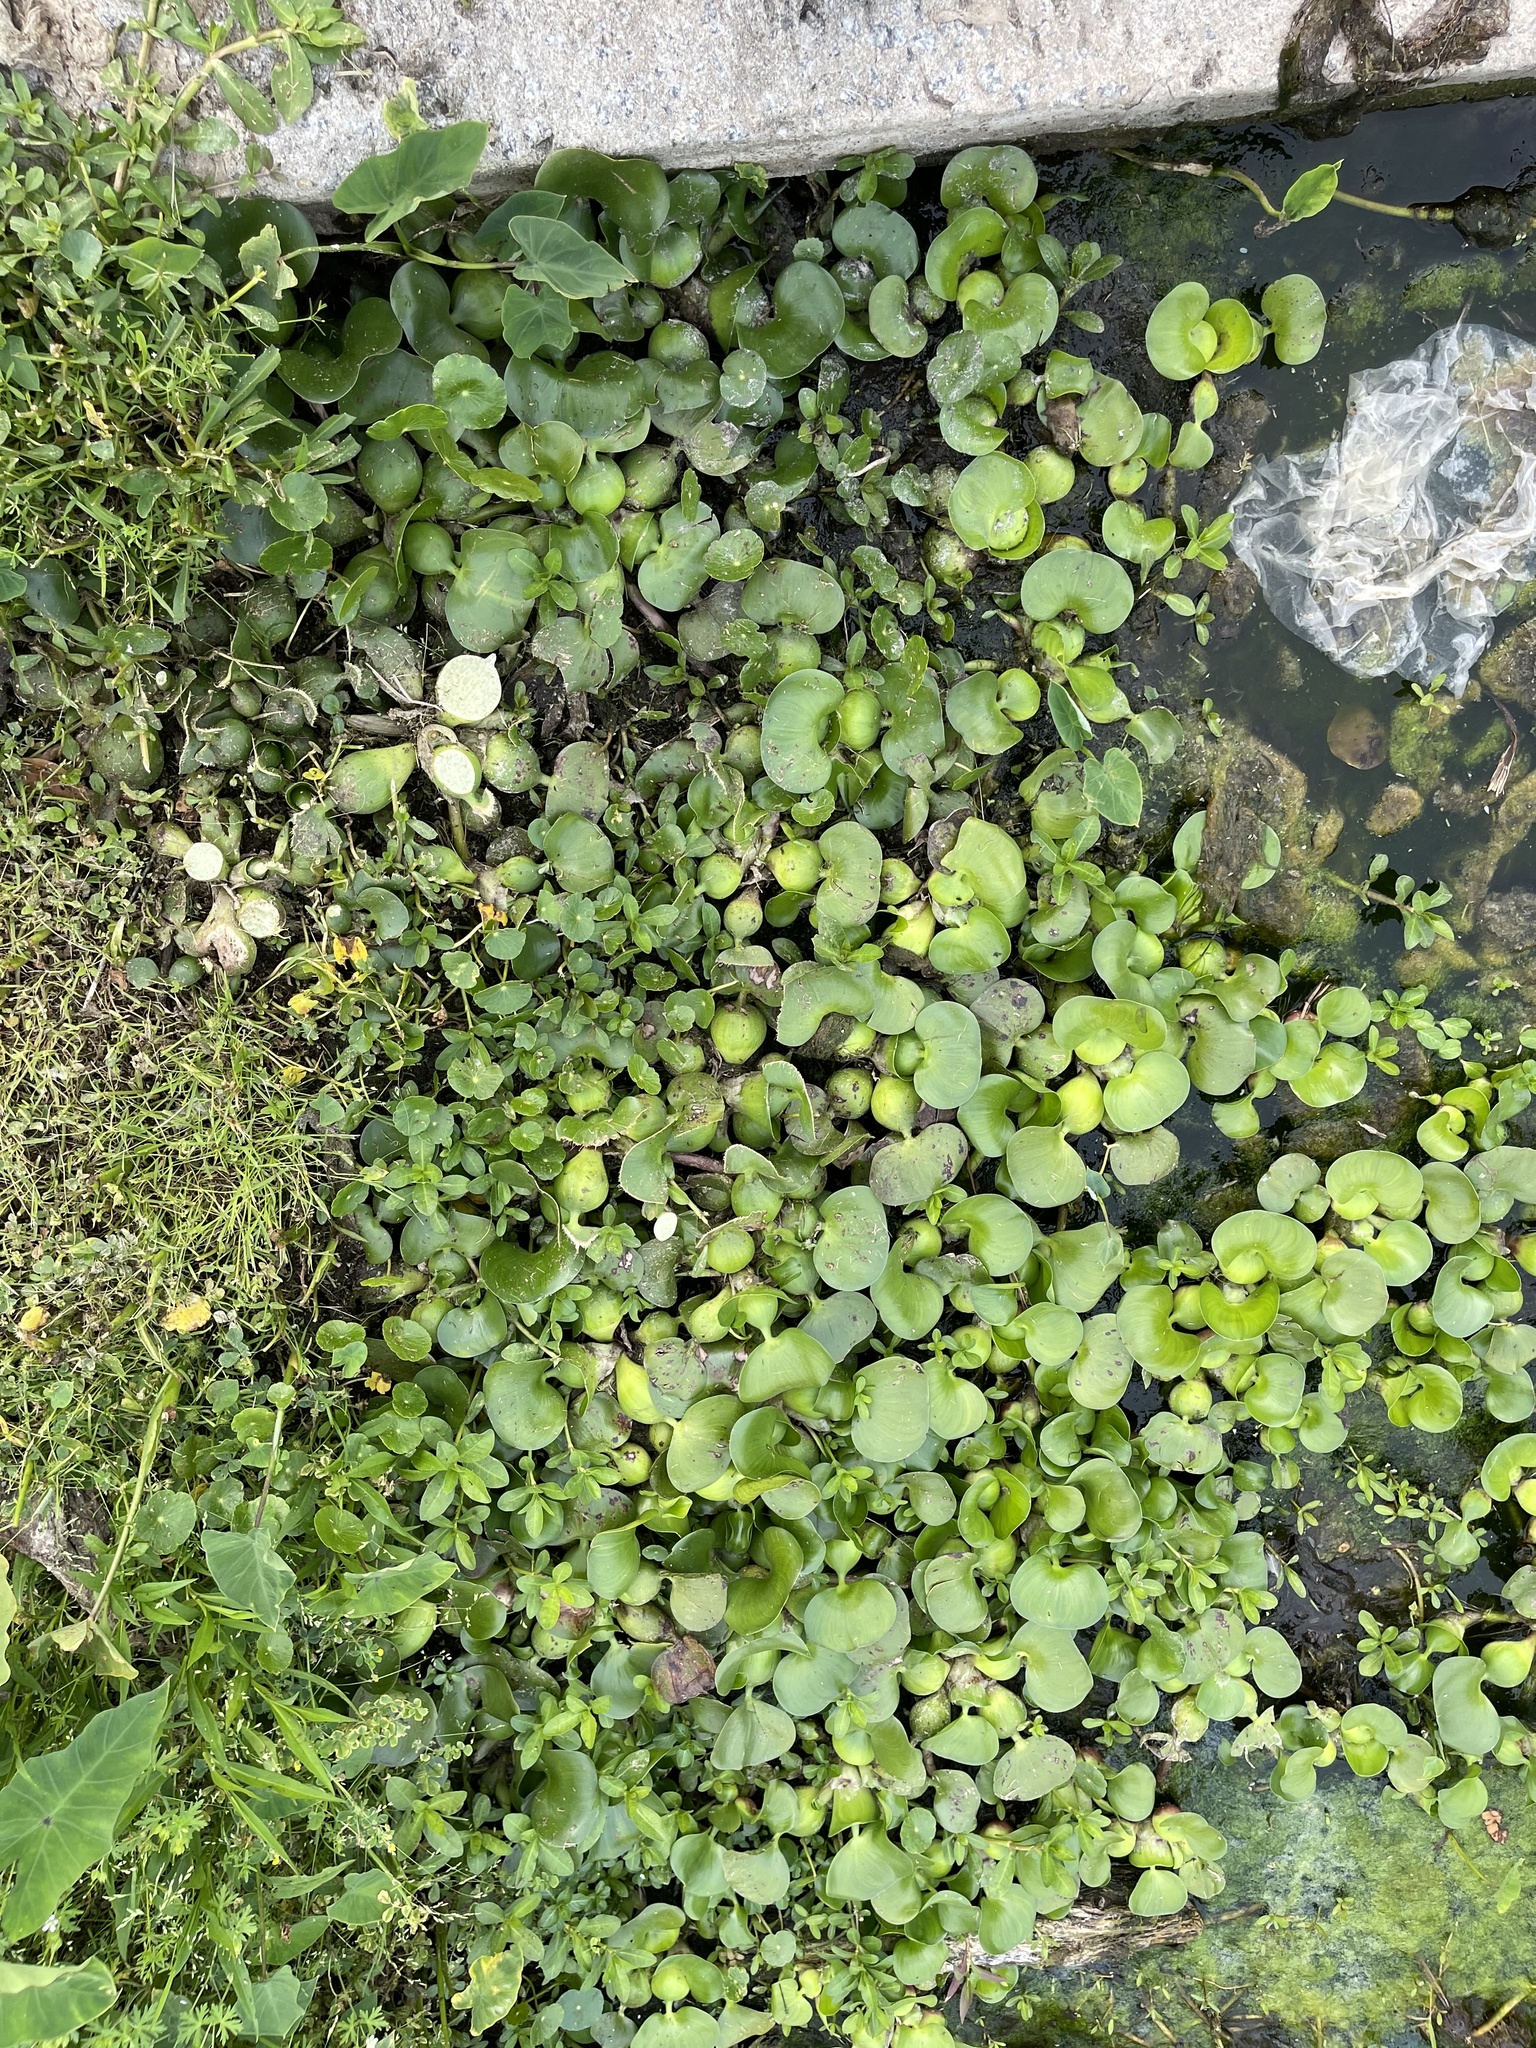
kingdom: Plantae
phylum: Tracheophyta
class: Liliopsida
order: Commelinales
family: Pontederiaceae
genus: Pontederia
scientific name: Pontederia crassipes
